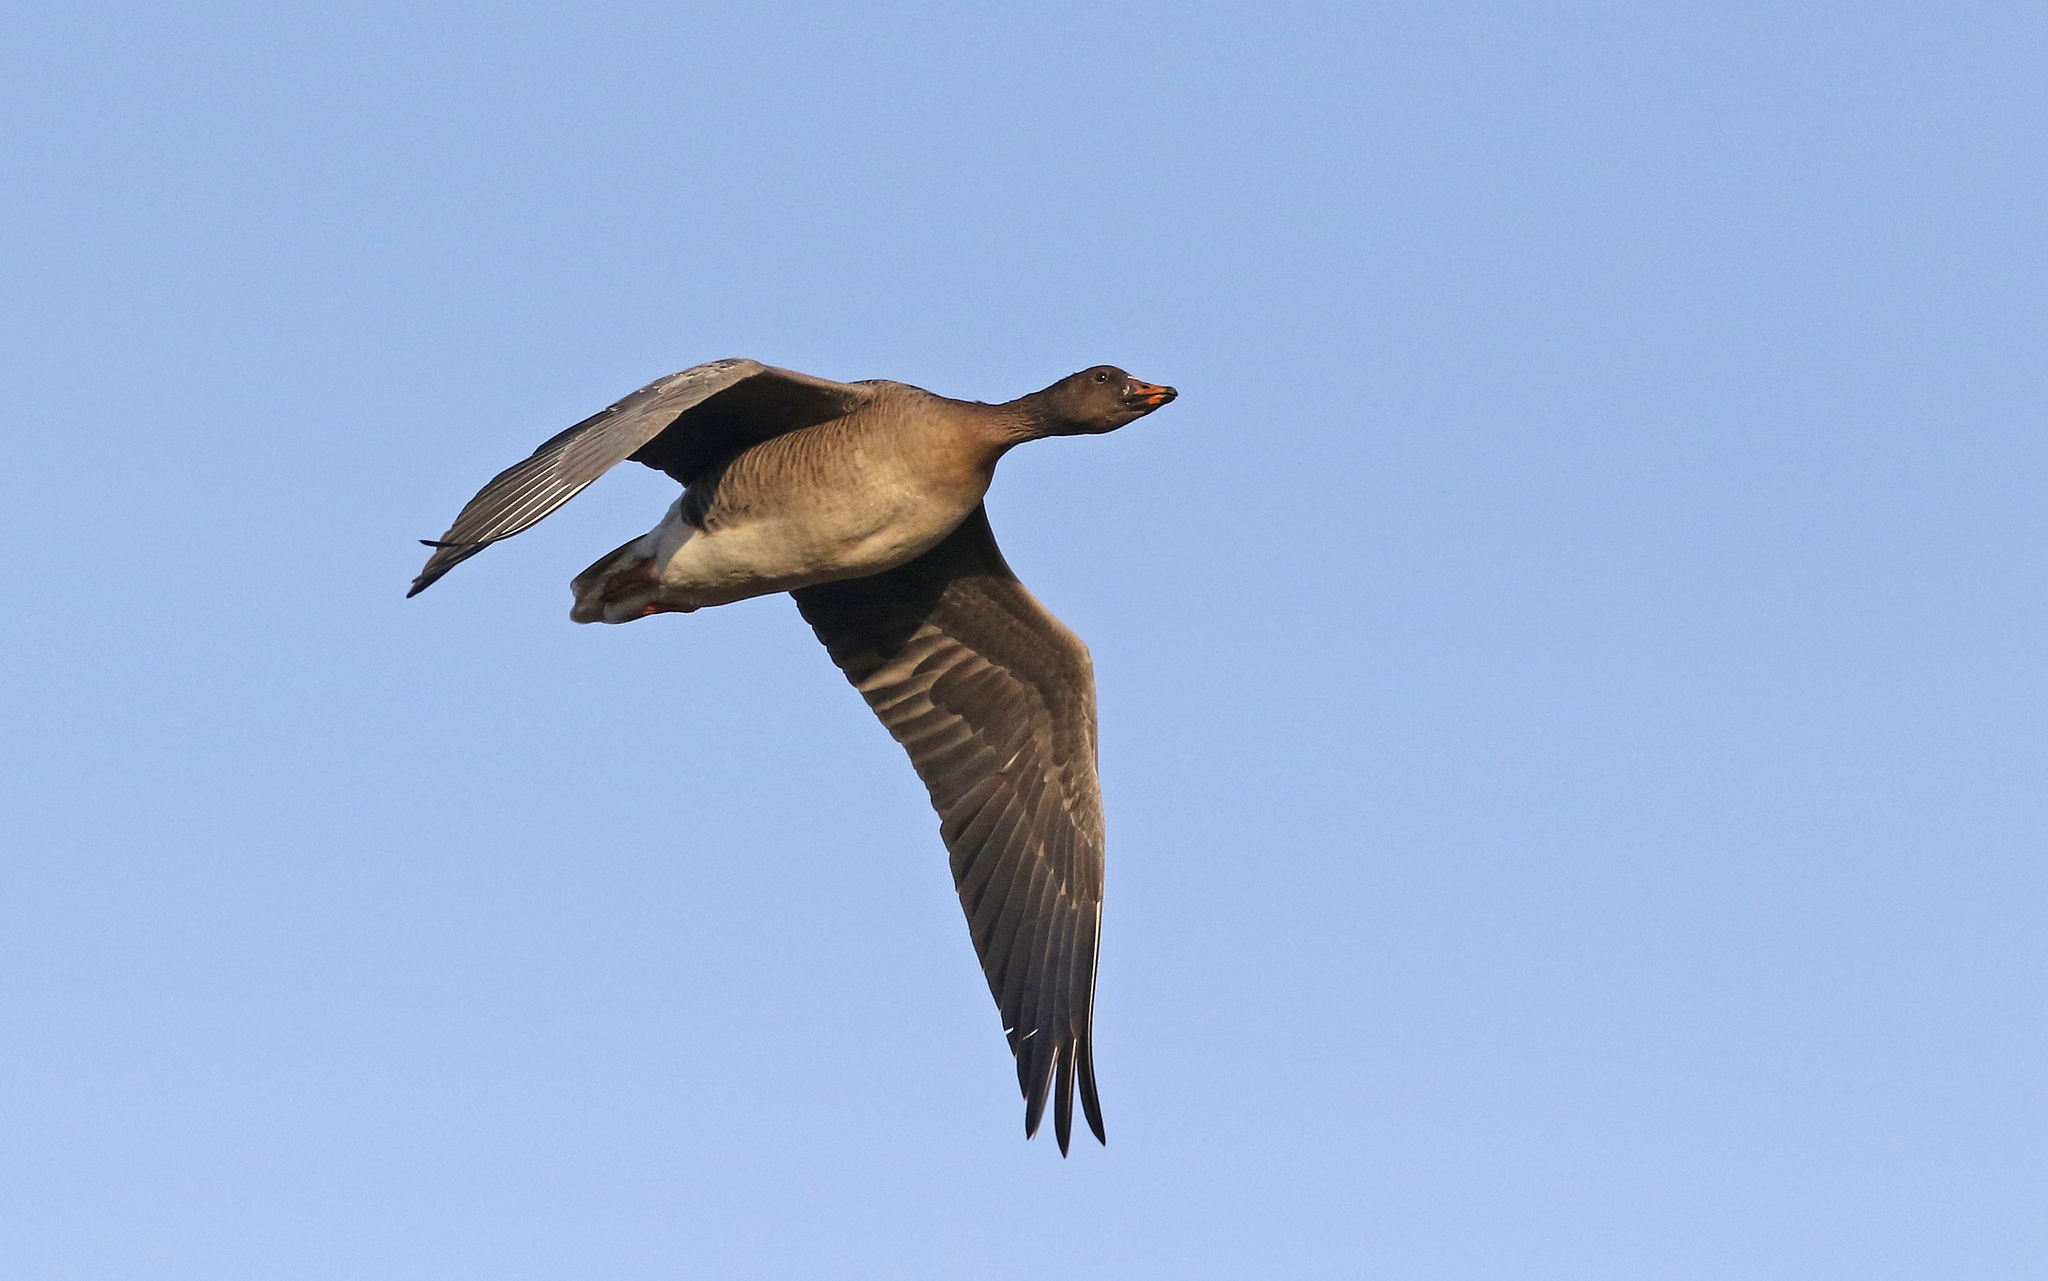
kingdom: Animalia
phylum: Chordata
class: Aves
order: Anseriformes
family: Anatidae
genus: Anser
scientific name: Anser serrirostris
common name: Tundra bean goose
